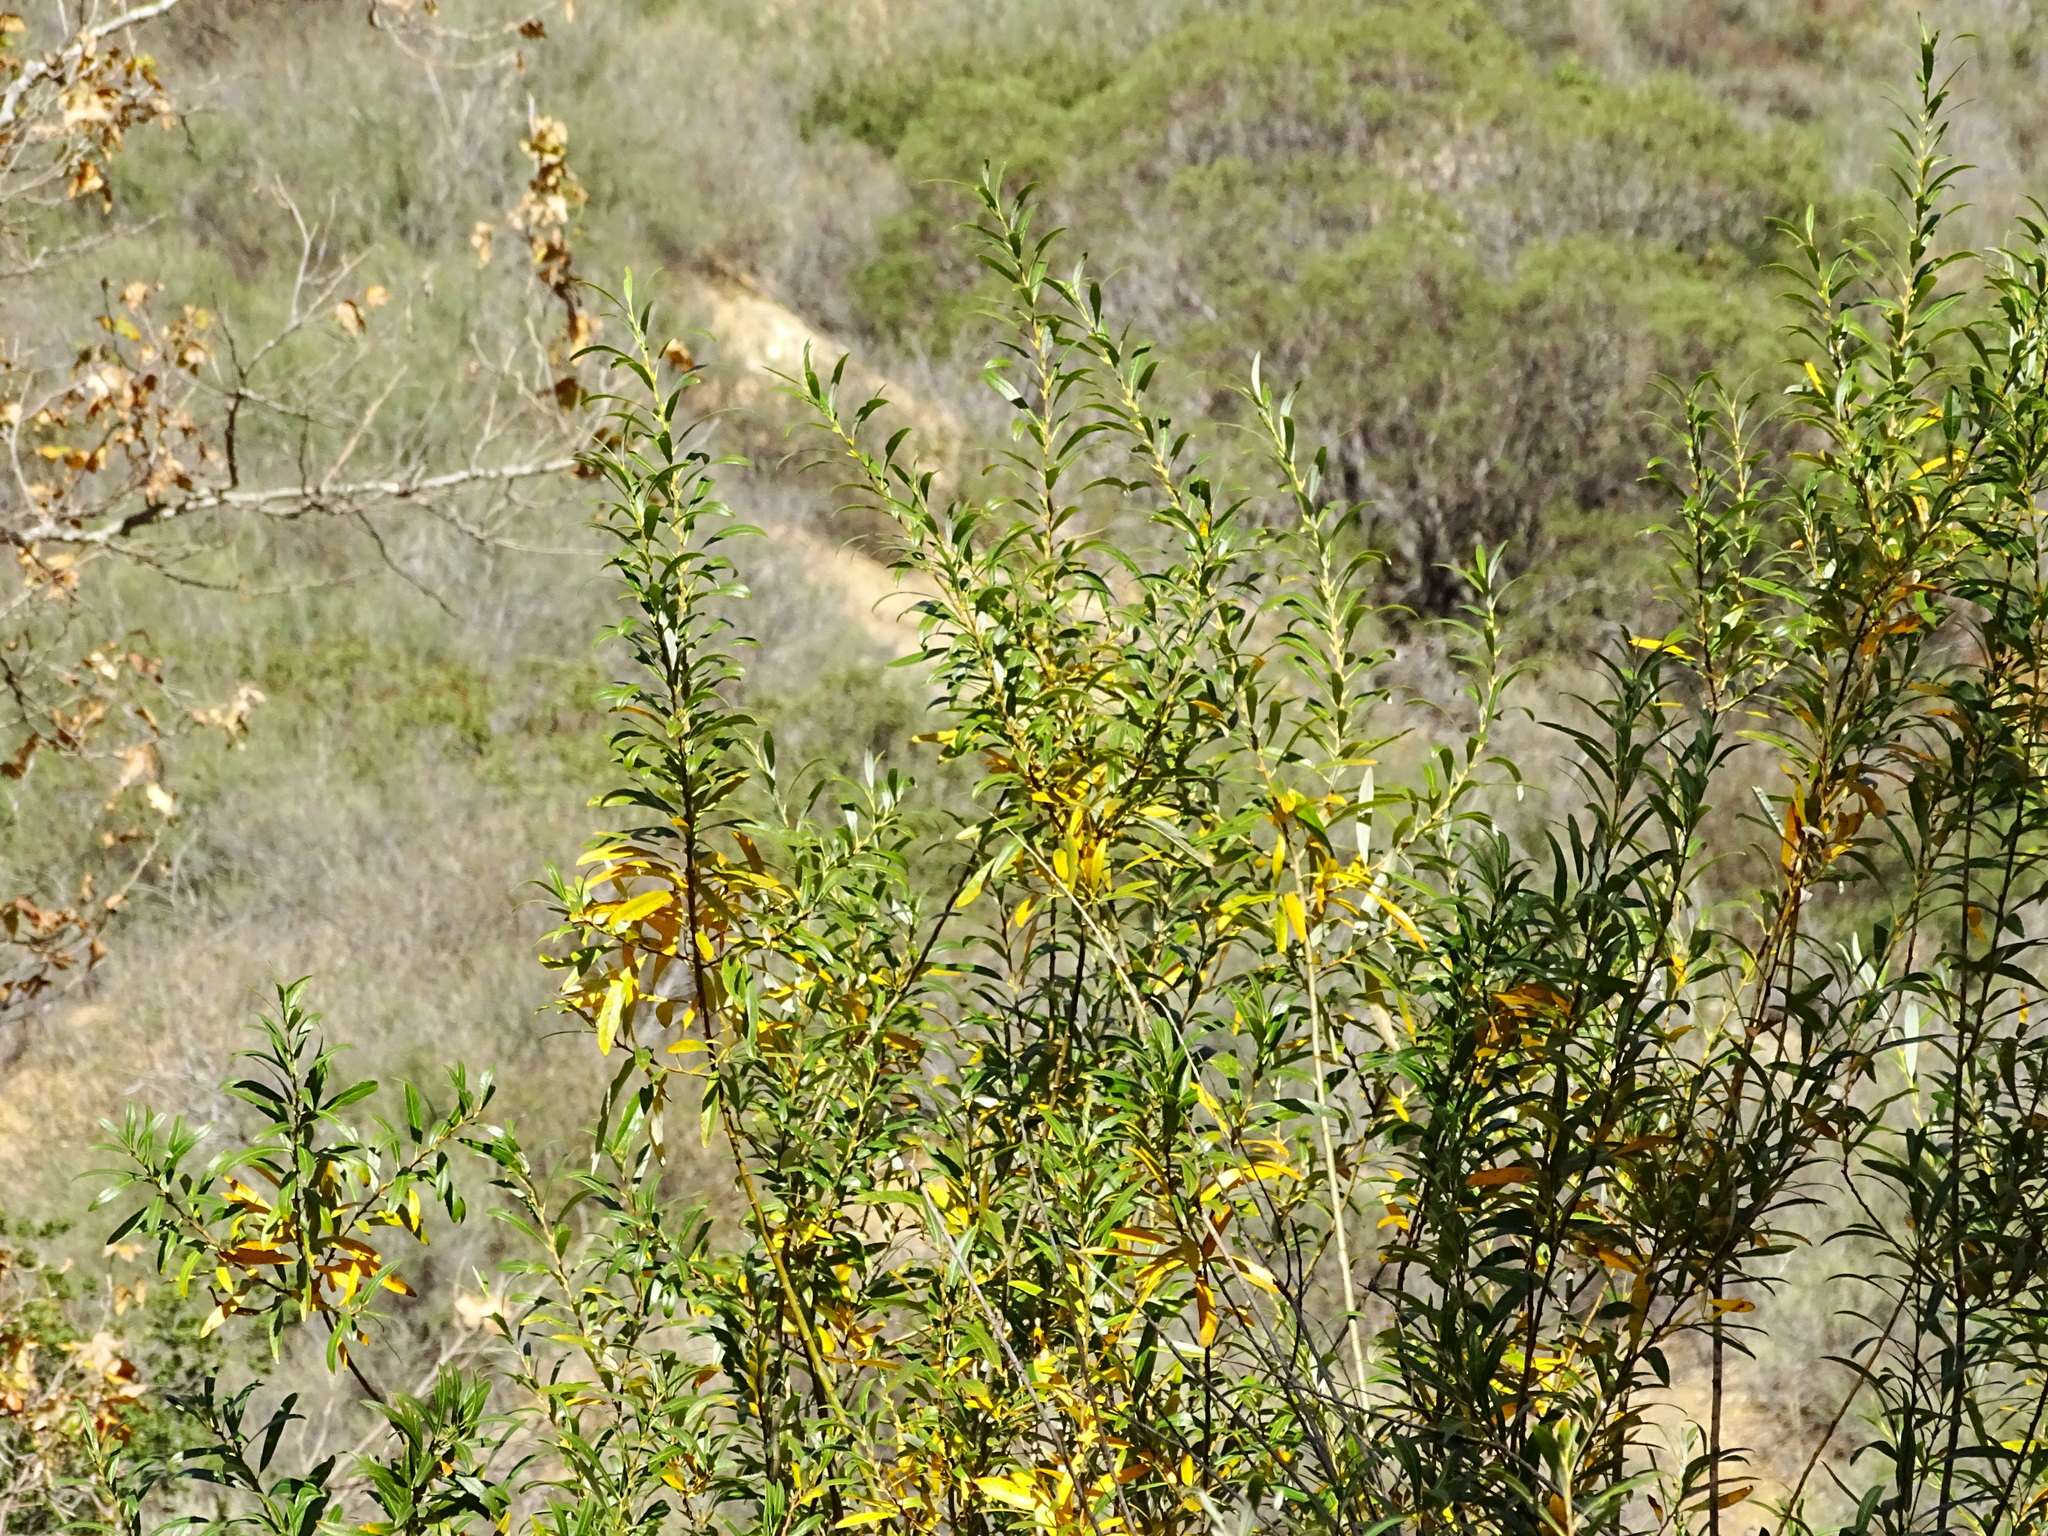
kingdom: Plantae
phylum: Tracheophyta
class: Magnoliopsida
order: Malpighiales
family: Salicaceae
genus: Salix
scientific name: Salix lasiolepis
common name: Arroyo willow
